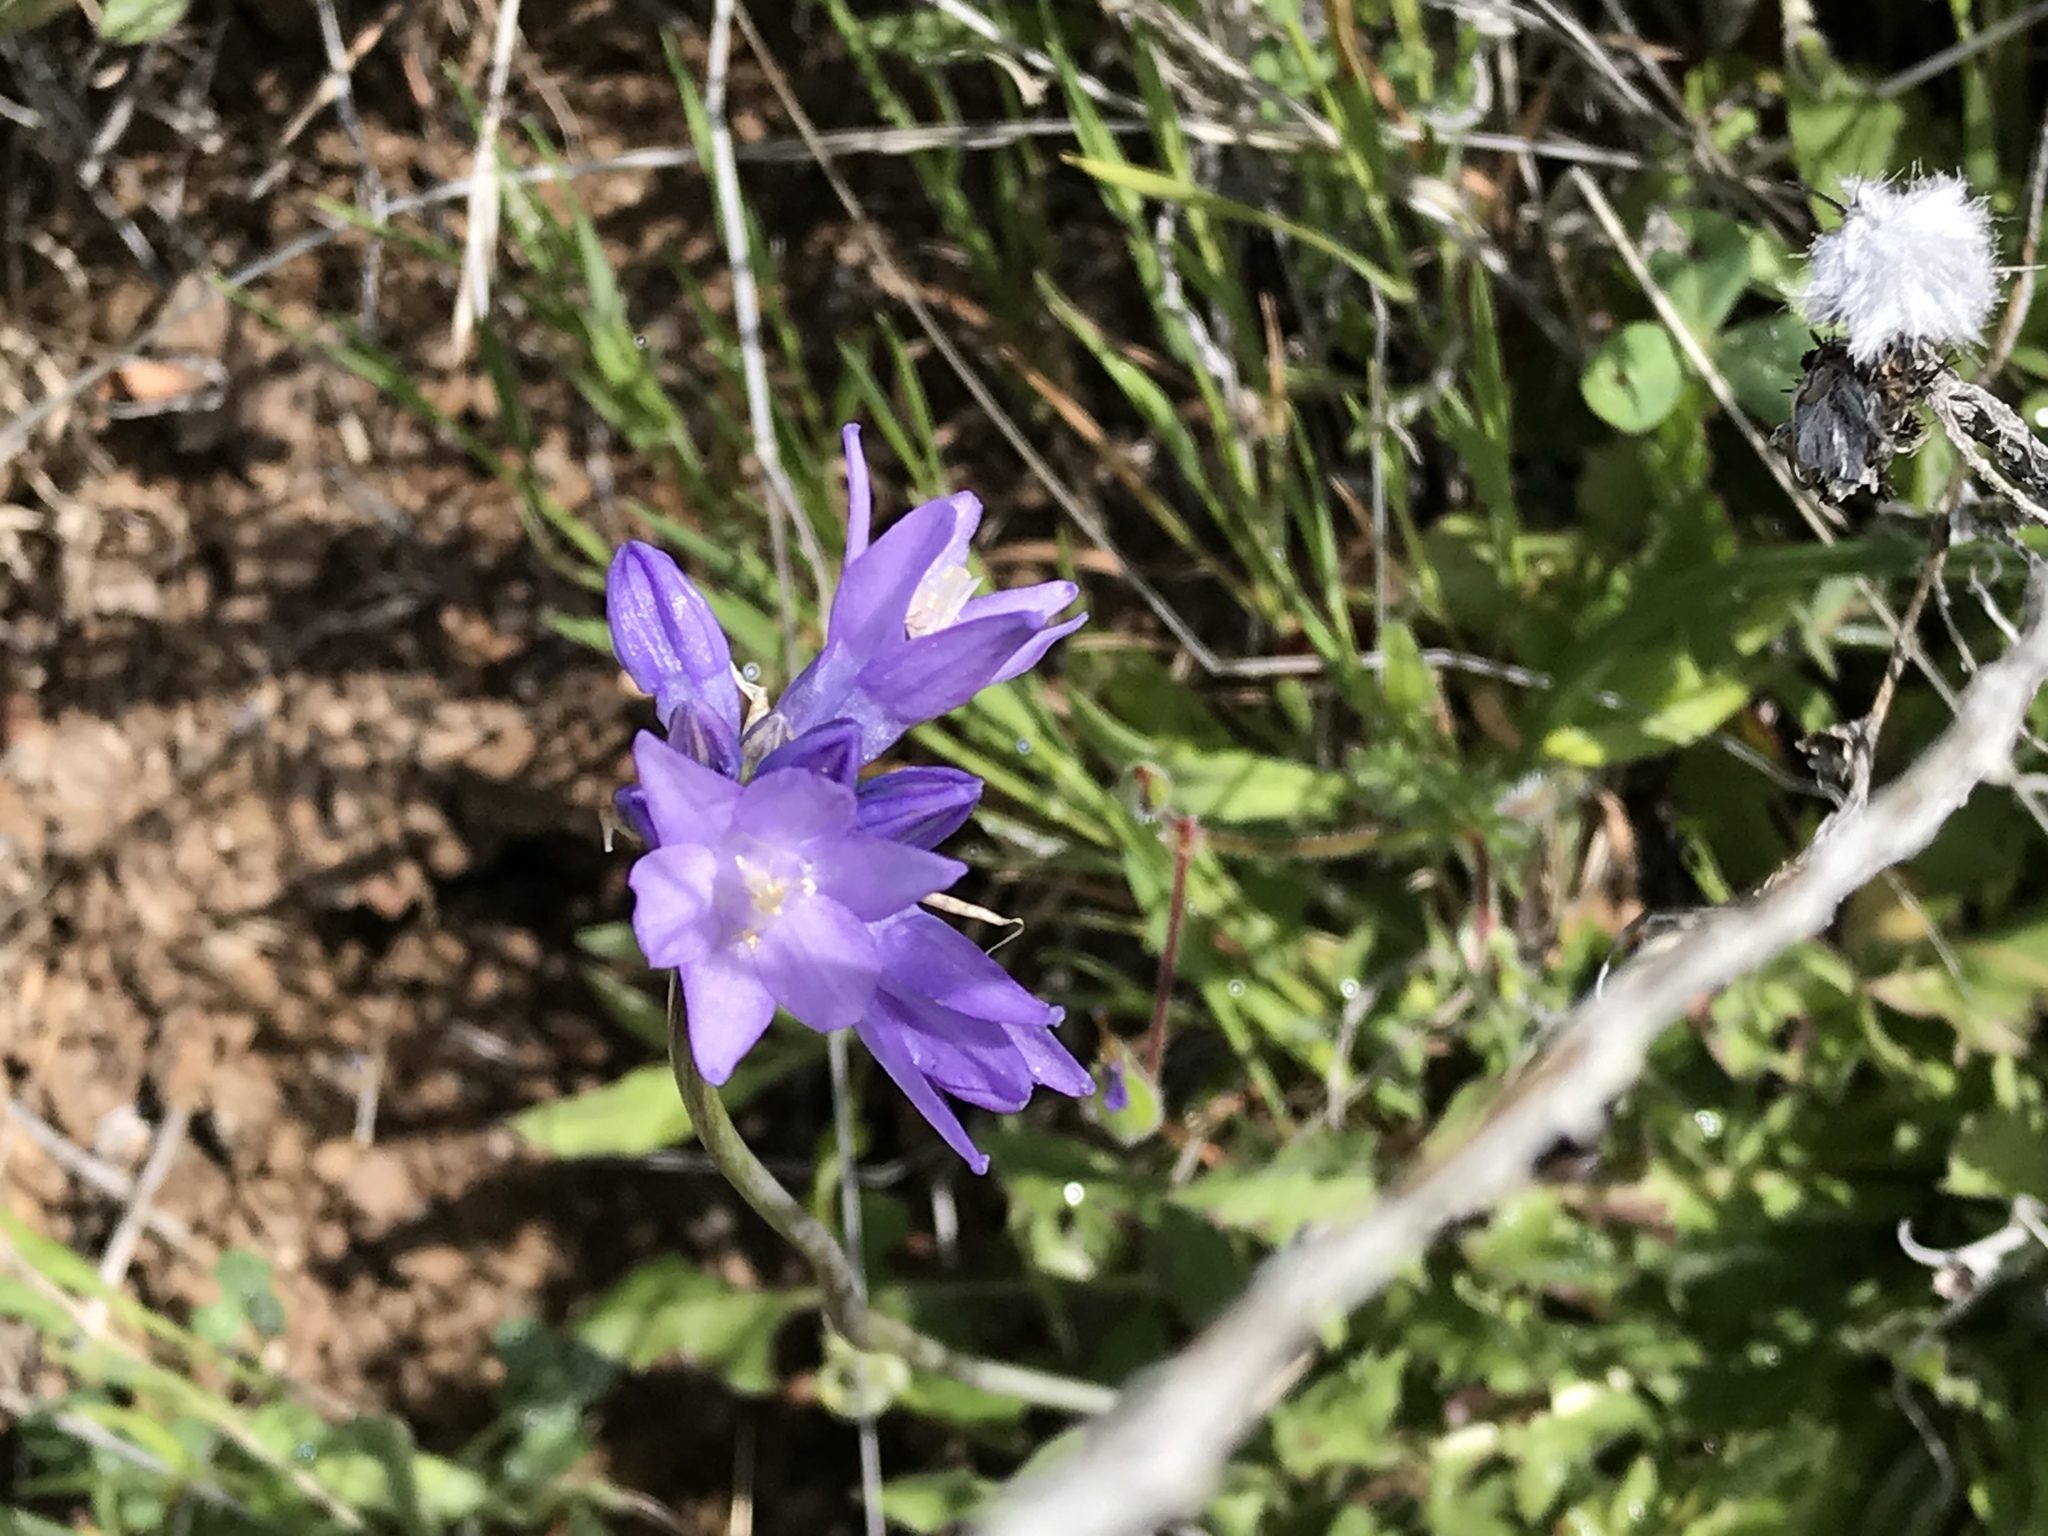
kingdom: Plantae
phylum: Tracheophyta
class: Liliopsida
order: Asparagales
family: Asparagaceae
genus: Dipterostemon
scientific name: Dipterostemon capitatus
